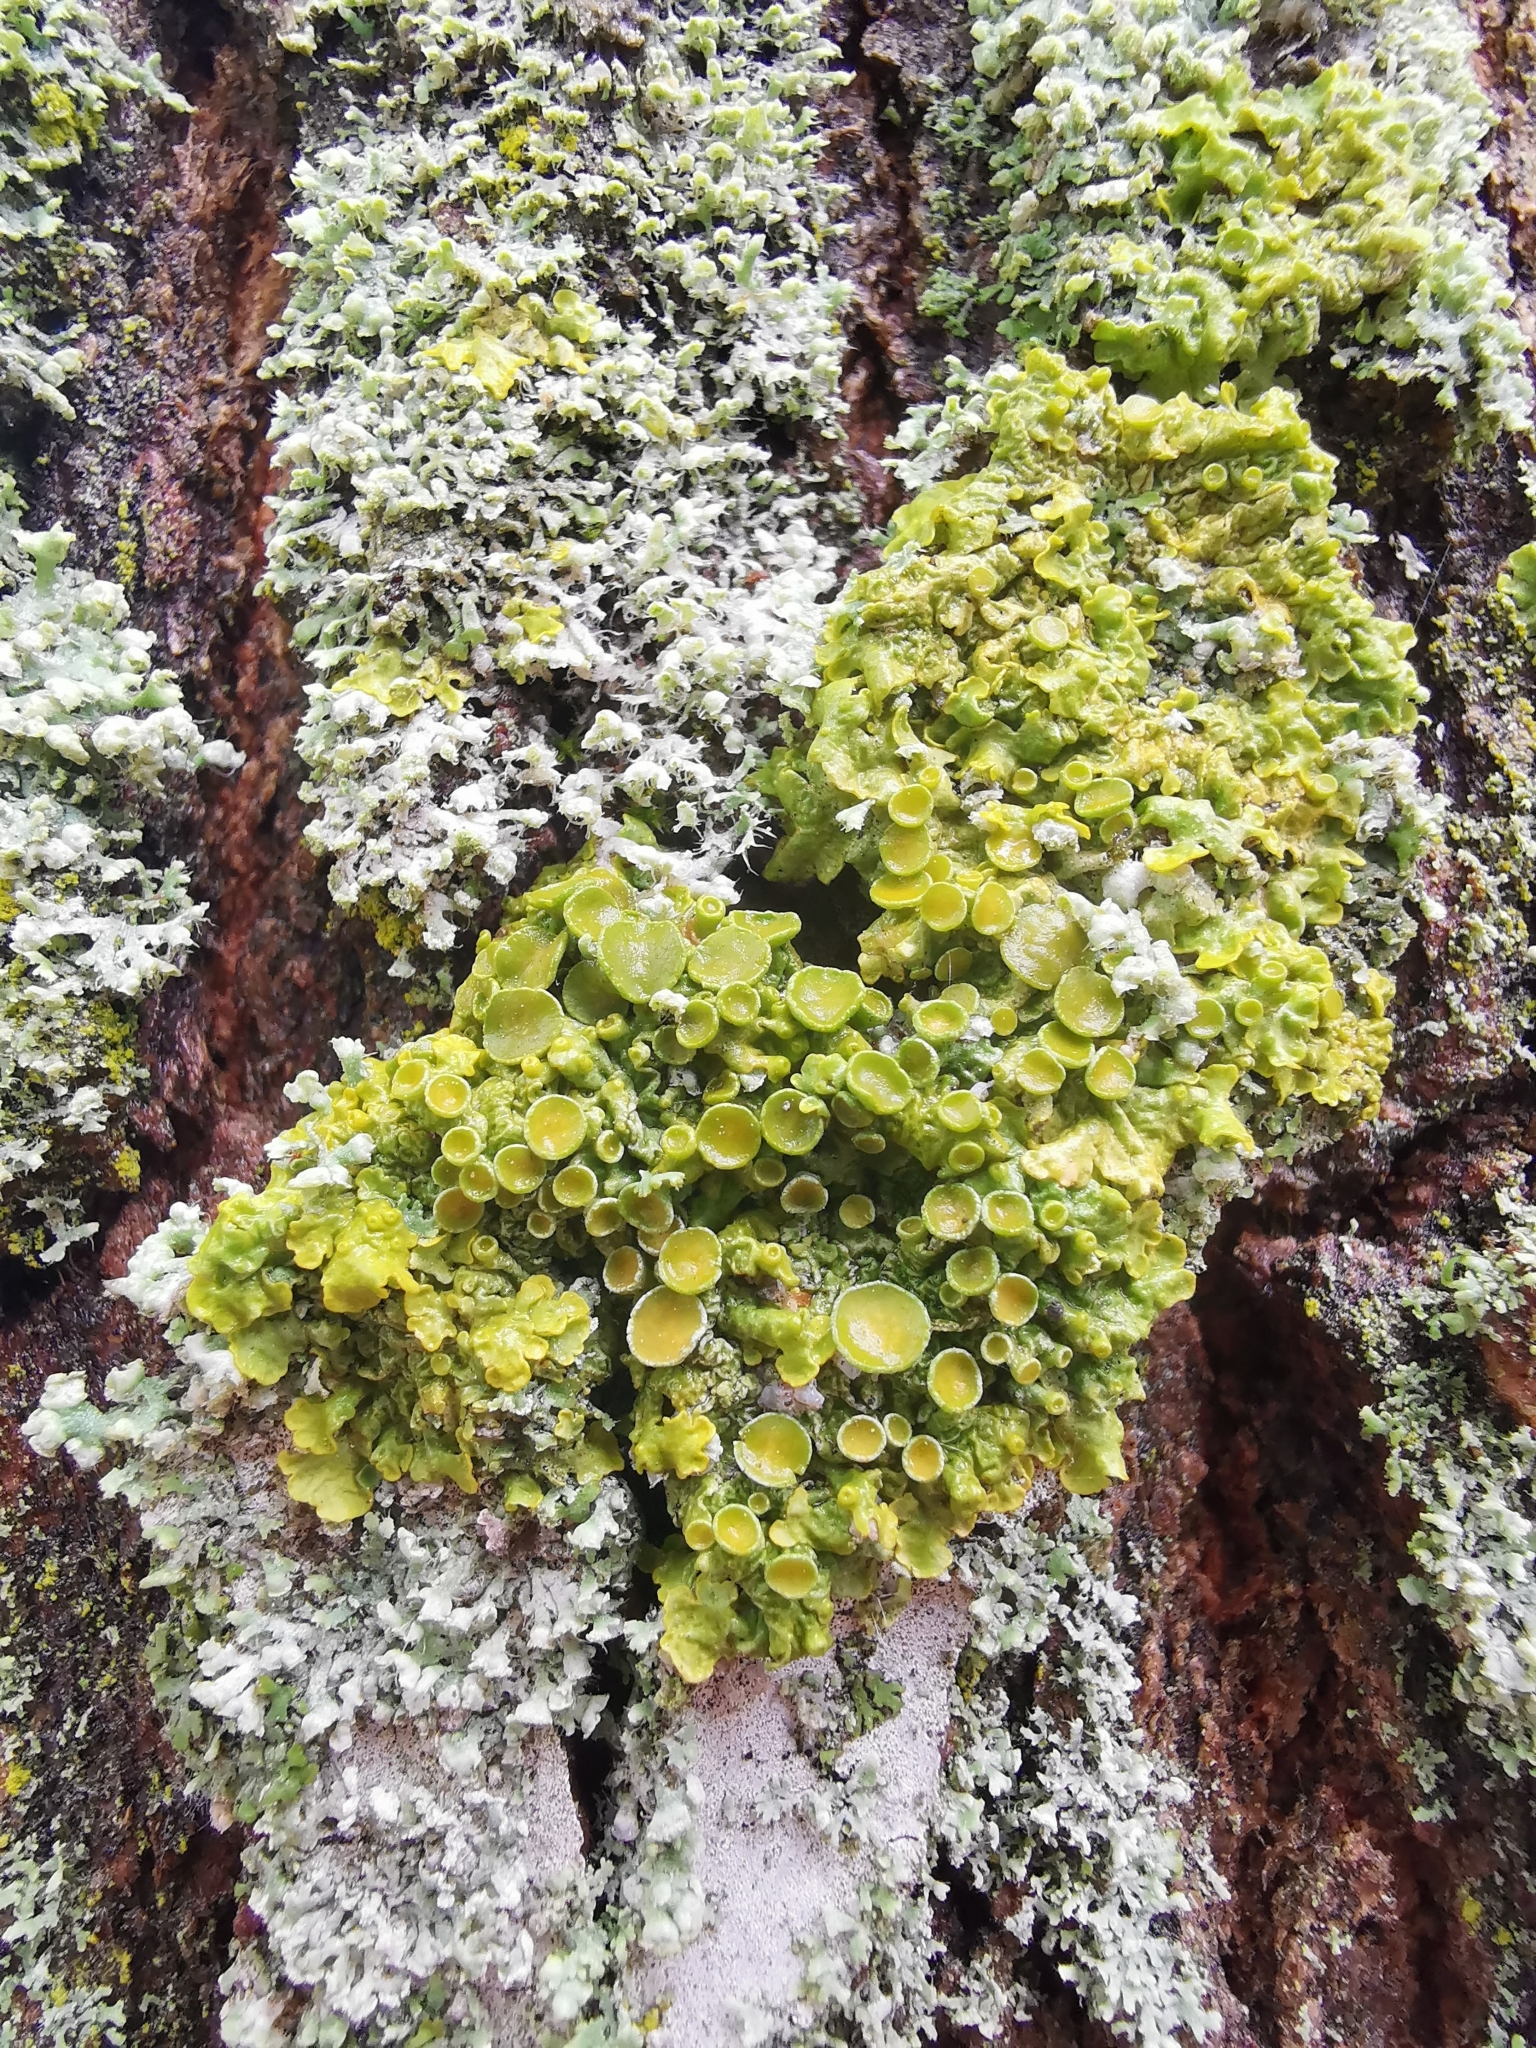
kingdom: Fungi
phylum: Ascomycota
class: Lecanoromycetes
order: Teloschistales
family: Teloschistaceae
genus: Xanthoria
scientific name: Xanthoria parietina
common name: Common orange lichen
